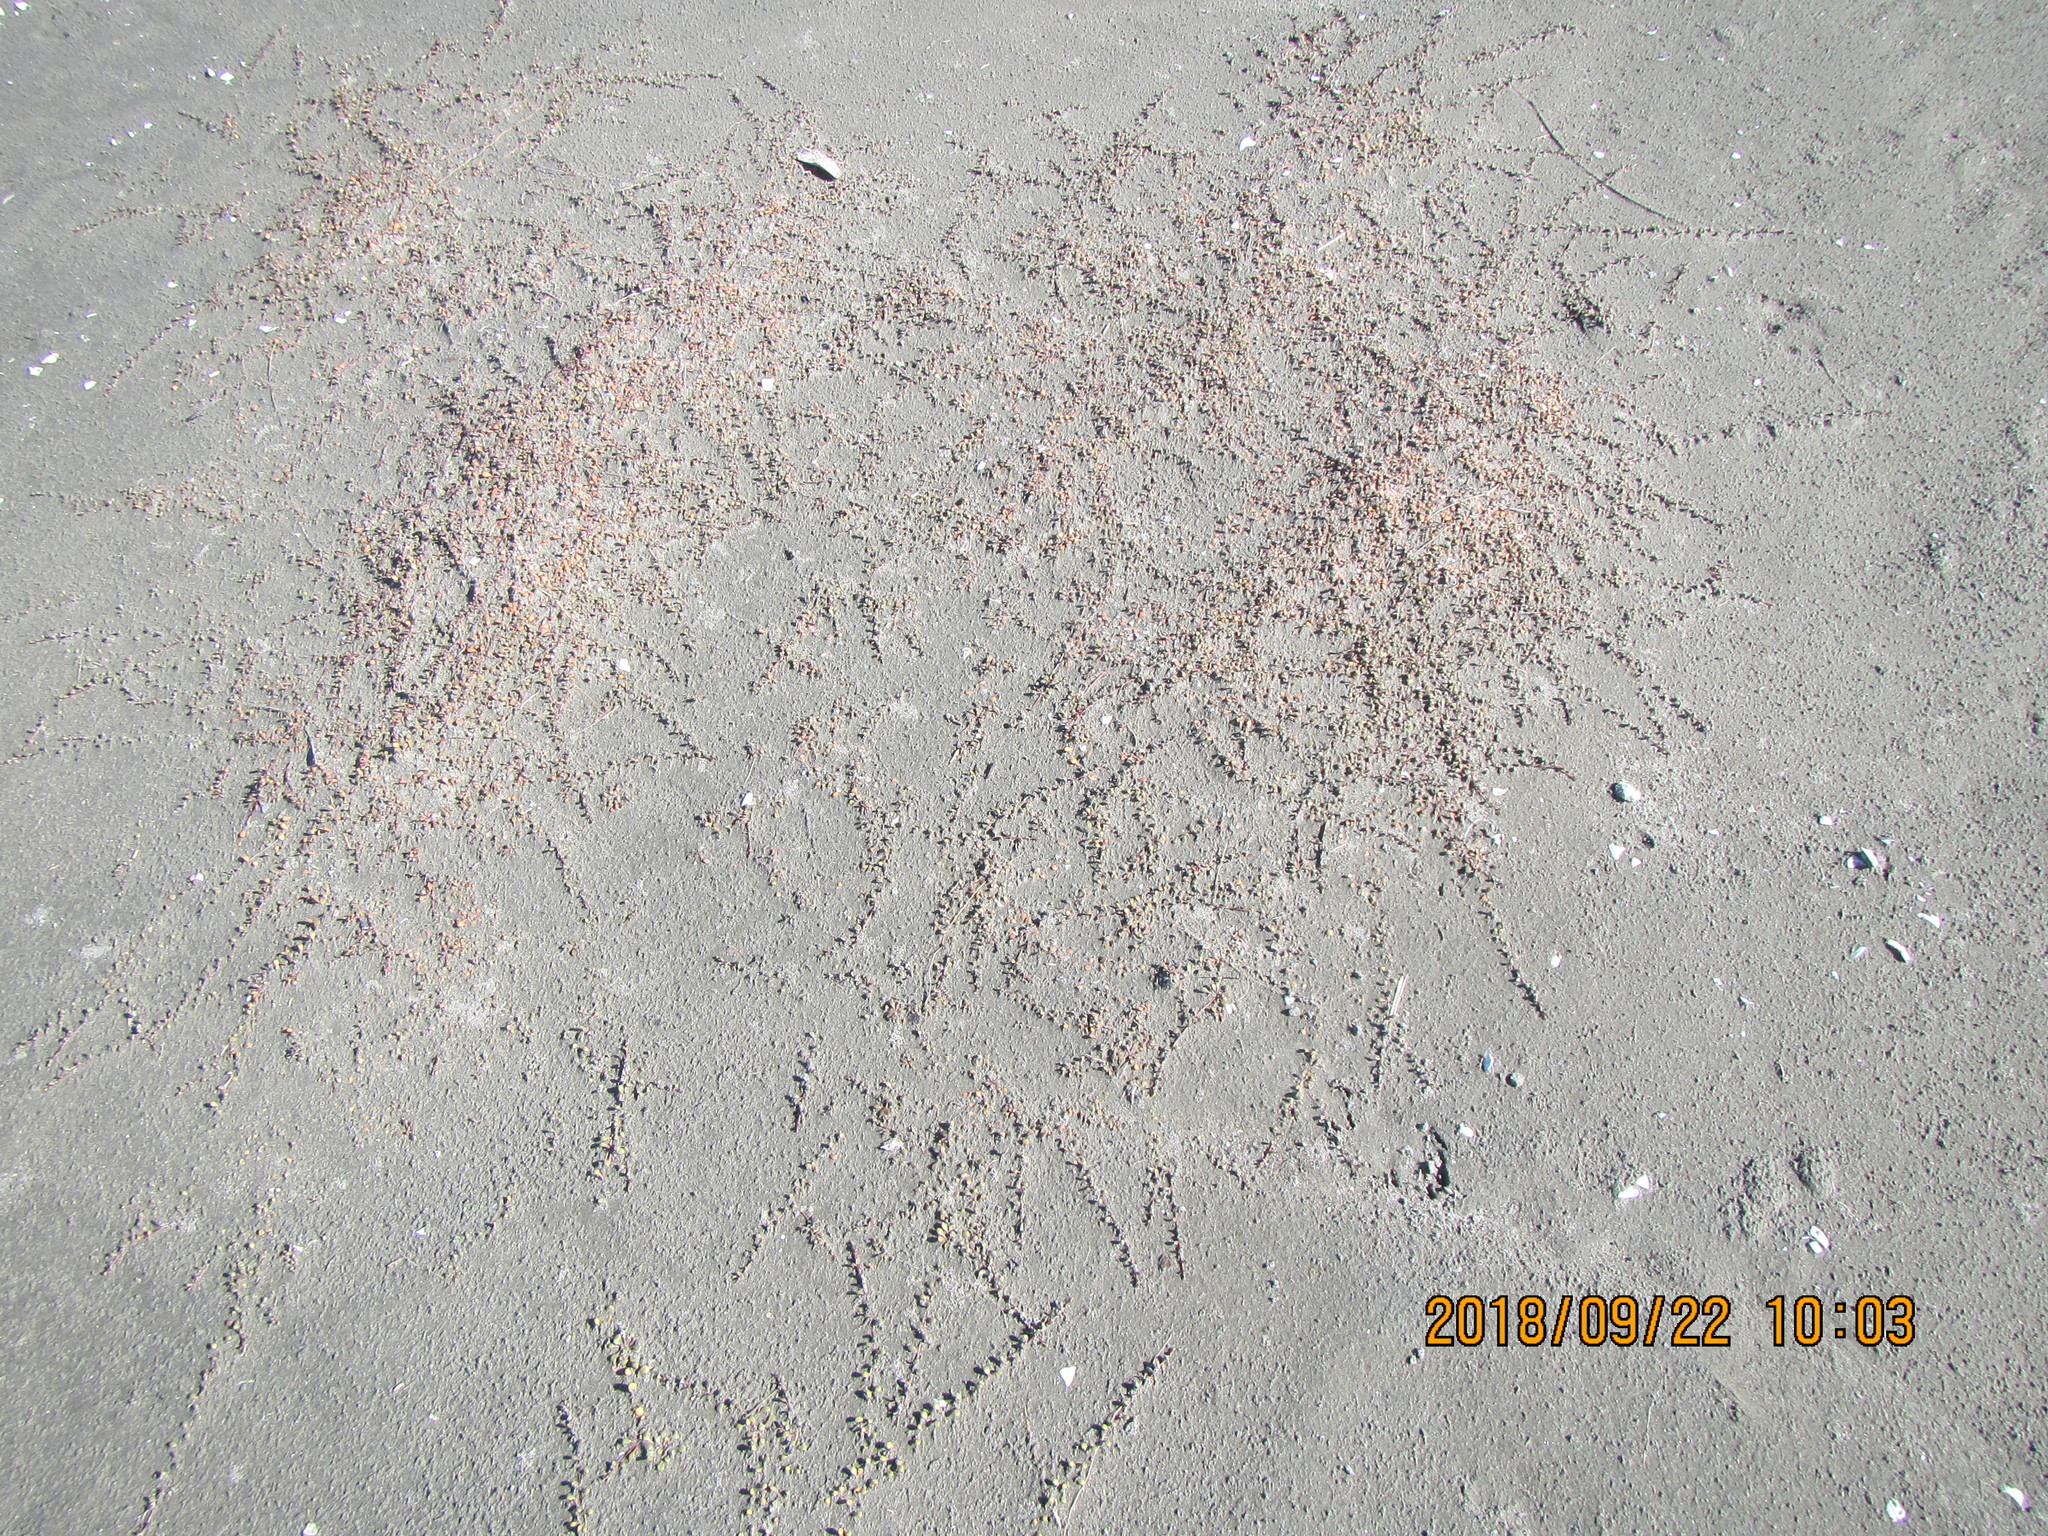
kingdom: Plantae
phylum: Tracheophyta
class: Magnoliopsida
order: Ericales
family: Primulaceae
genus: Samolus
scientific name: Samolus repens
